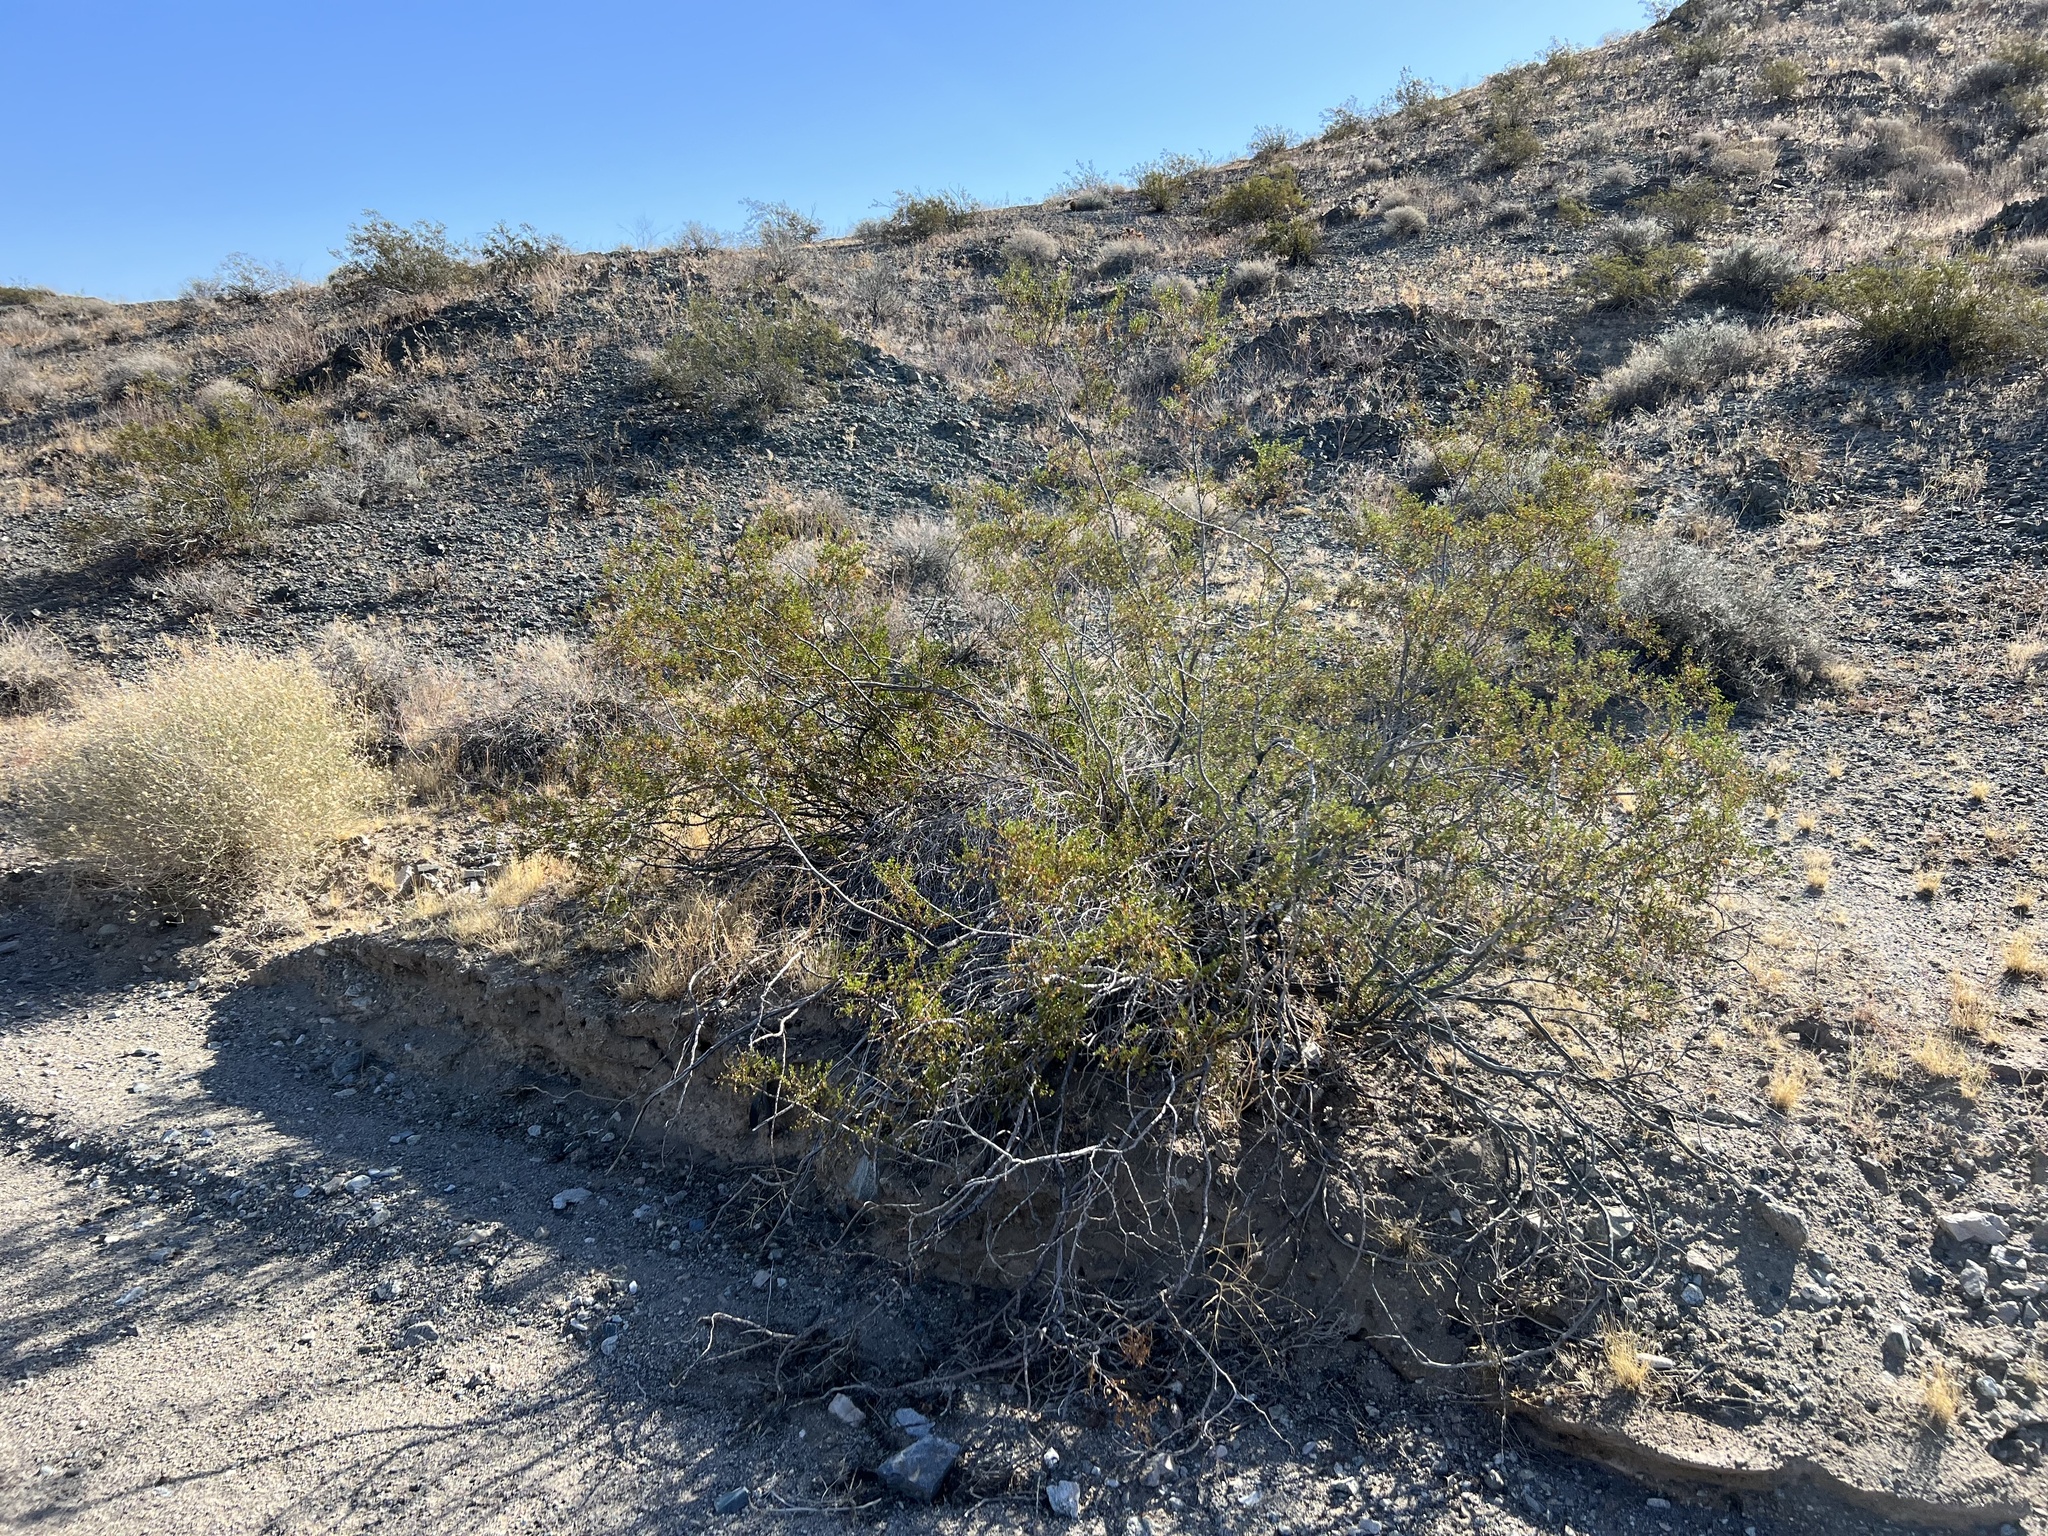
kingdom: Plantae
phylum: Tracheophyta
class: Magnoliopsida
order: Zygophyllales
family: Zygophyllaceae
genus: Larrea
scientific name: Larrea tridentata
